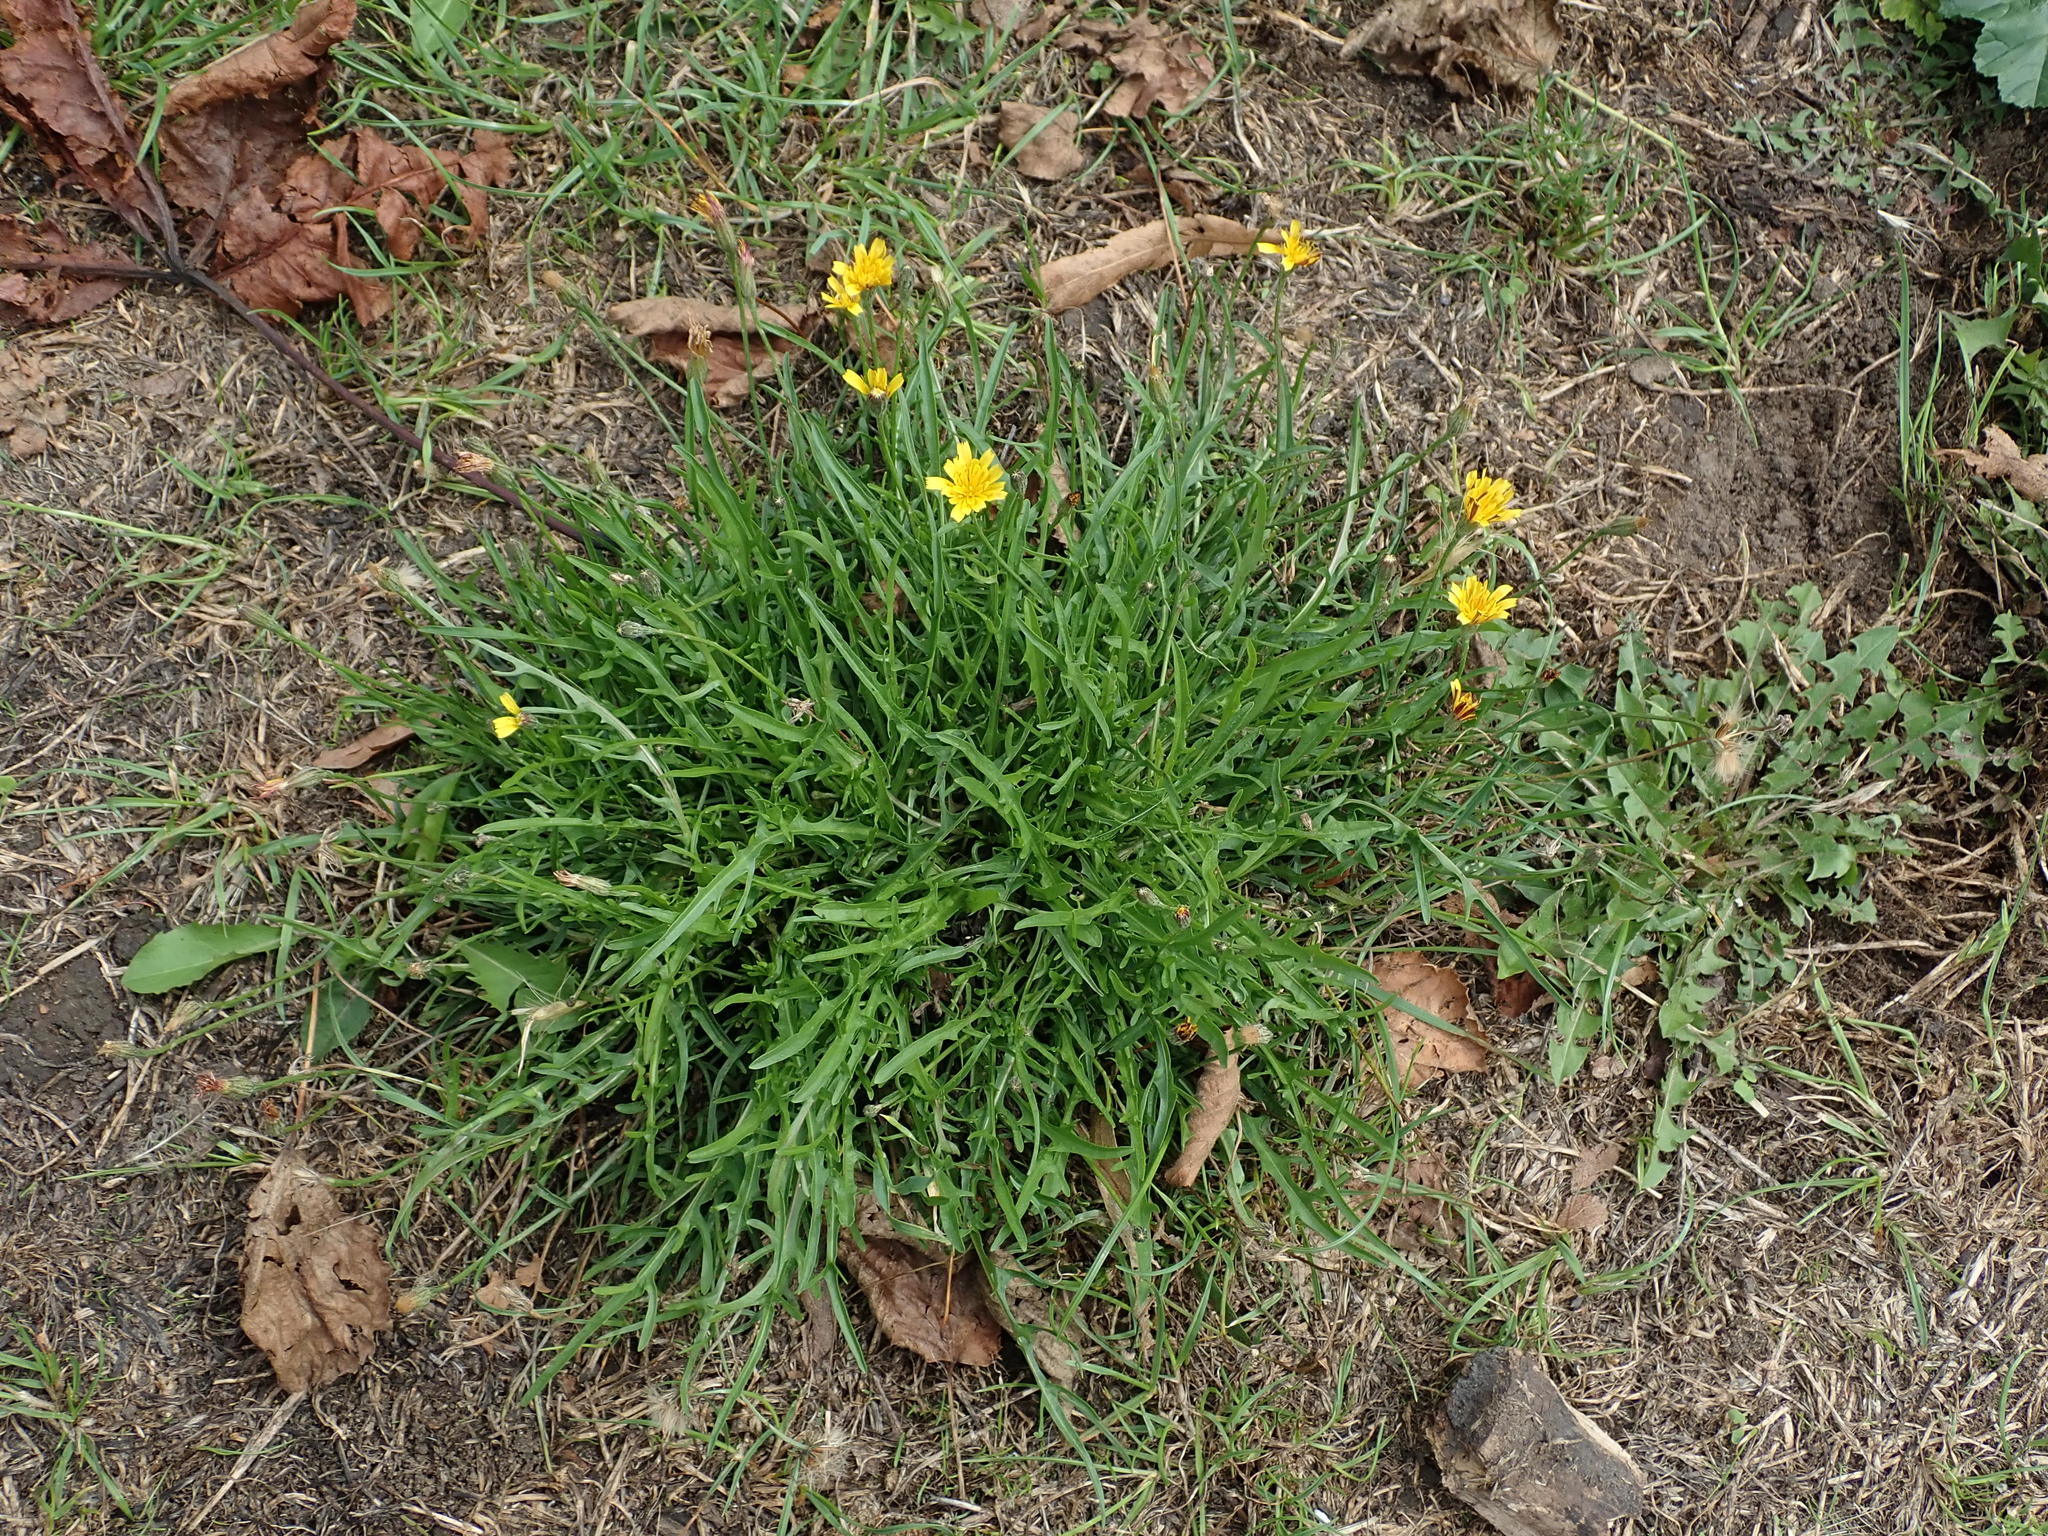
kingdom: Plantae
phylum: Tracheophyta
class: Magnoliopsida
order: Asterales
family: Asteraceae
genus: Scorzoneroides
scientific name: Scorzoneroides autumnalis
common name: Autumn hawkbit
